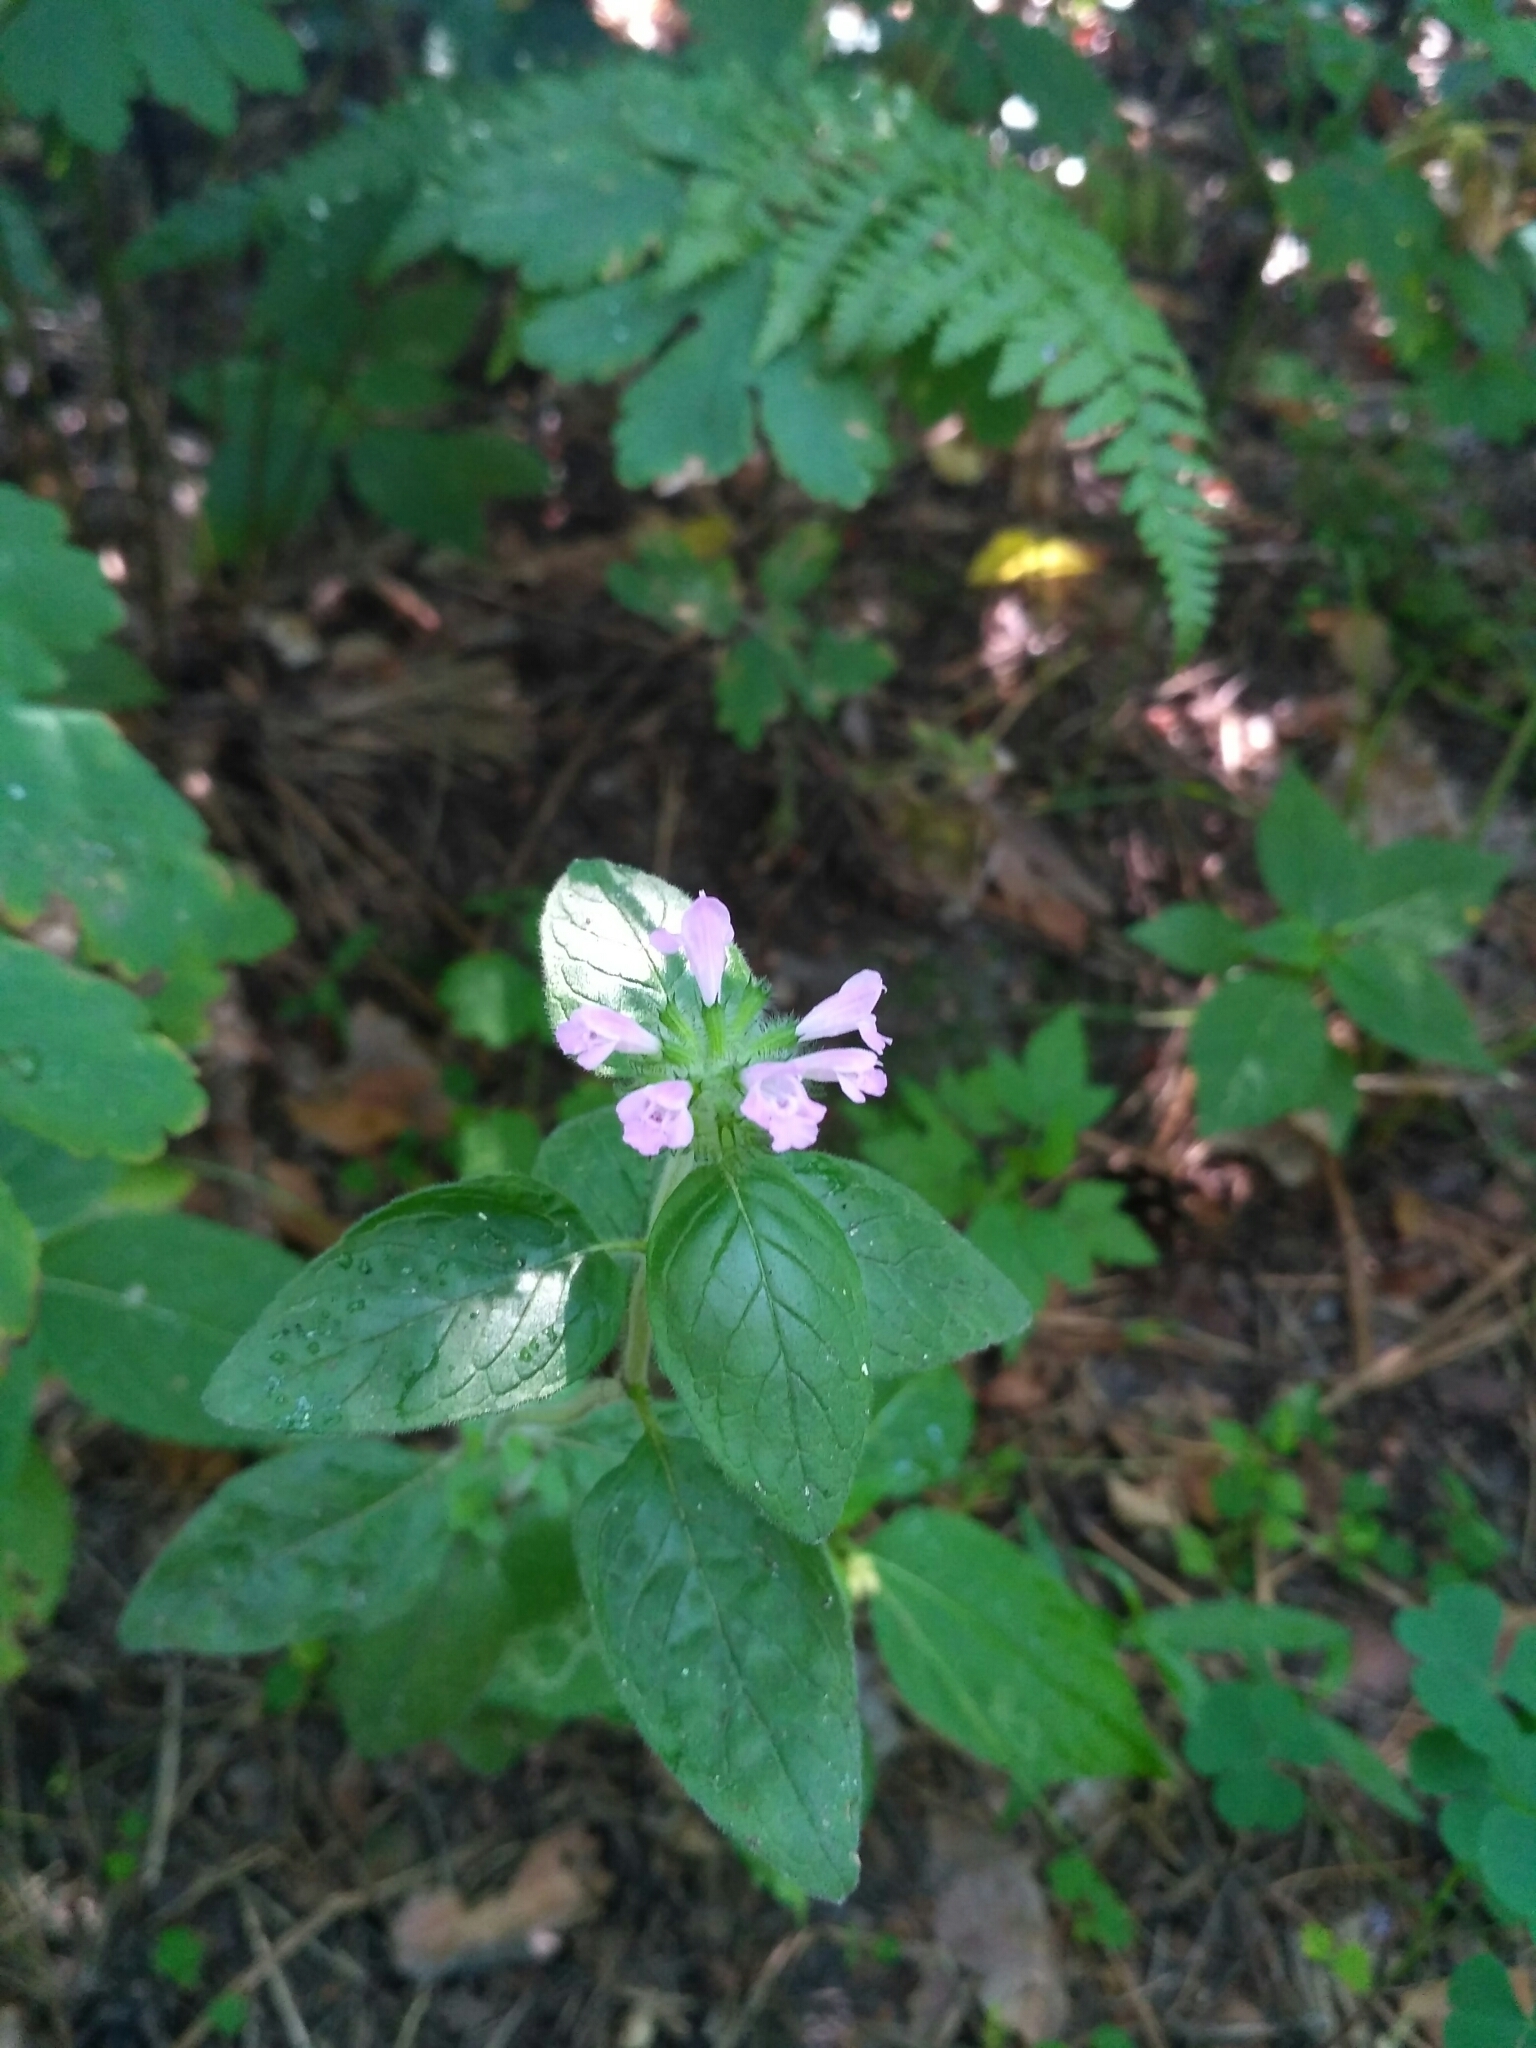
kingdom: Plantae
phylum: Tracheophyta
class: Magnoliopsida
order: Lamiales
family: Lamiaceae
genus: Clinopodium
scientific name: Clinopodium vulgare
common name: Wild basil
